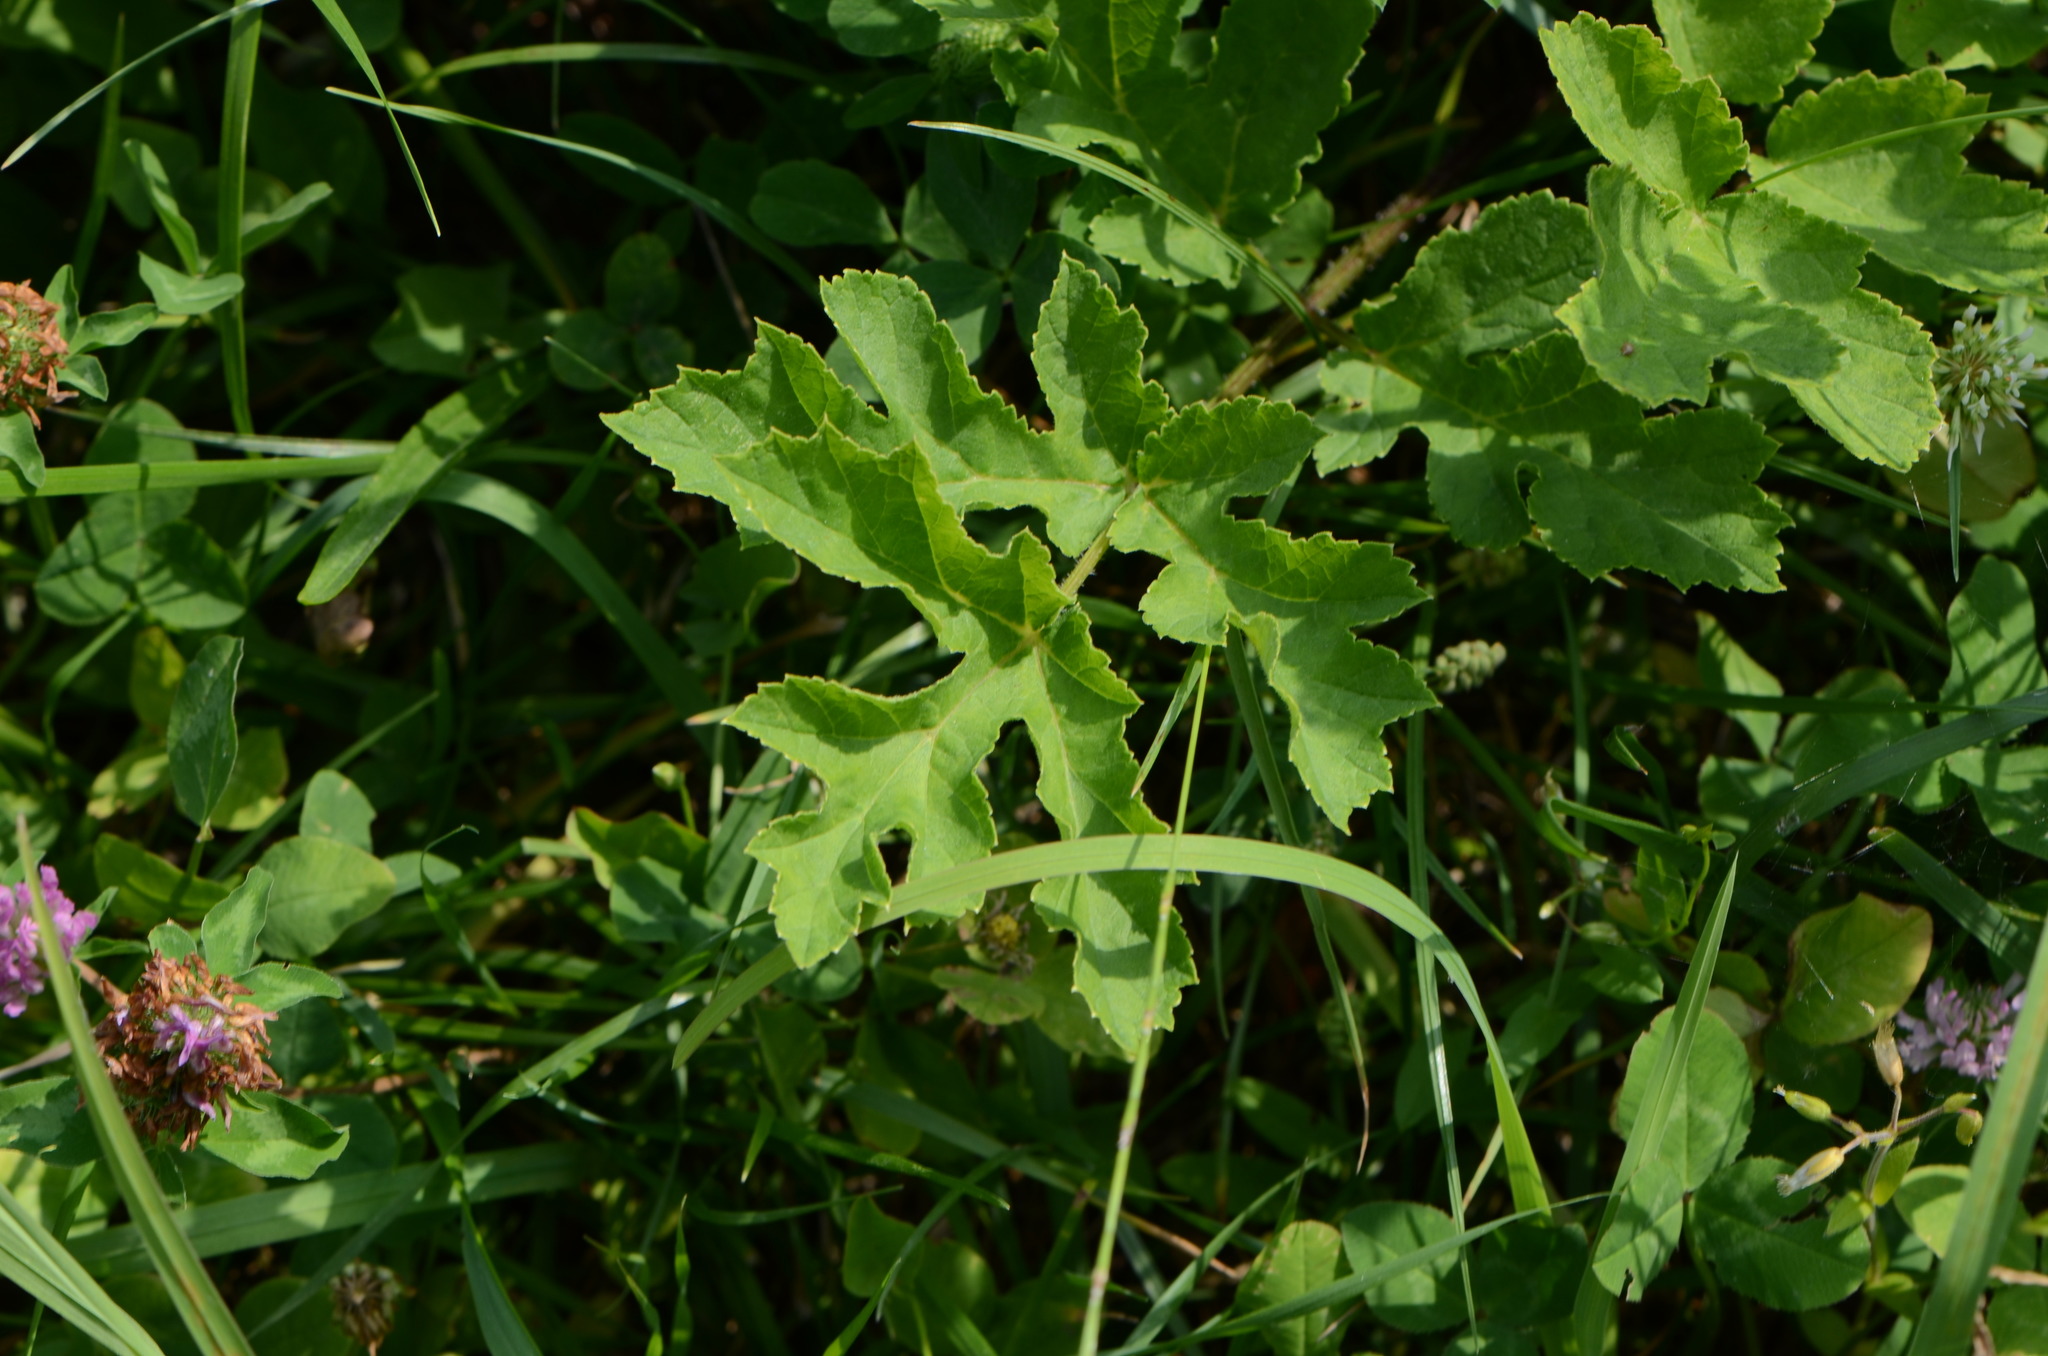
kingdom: Plantae
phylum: Tracheophyta
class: Magnoliopsida
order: Apiales
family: Apiaceae
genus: Heracleum
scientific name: Heracleum sphondylium
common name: Hogweed
